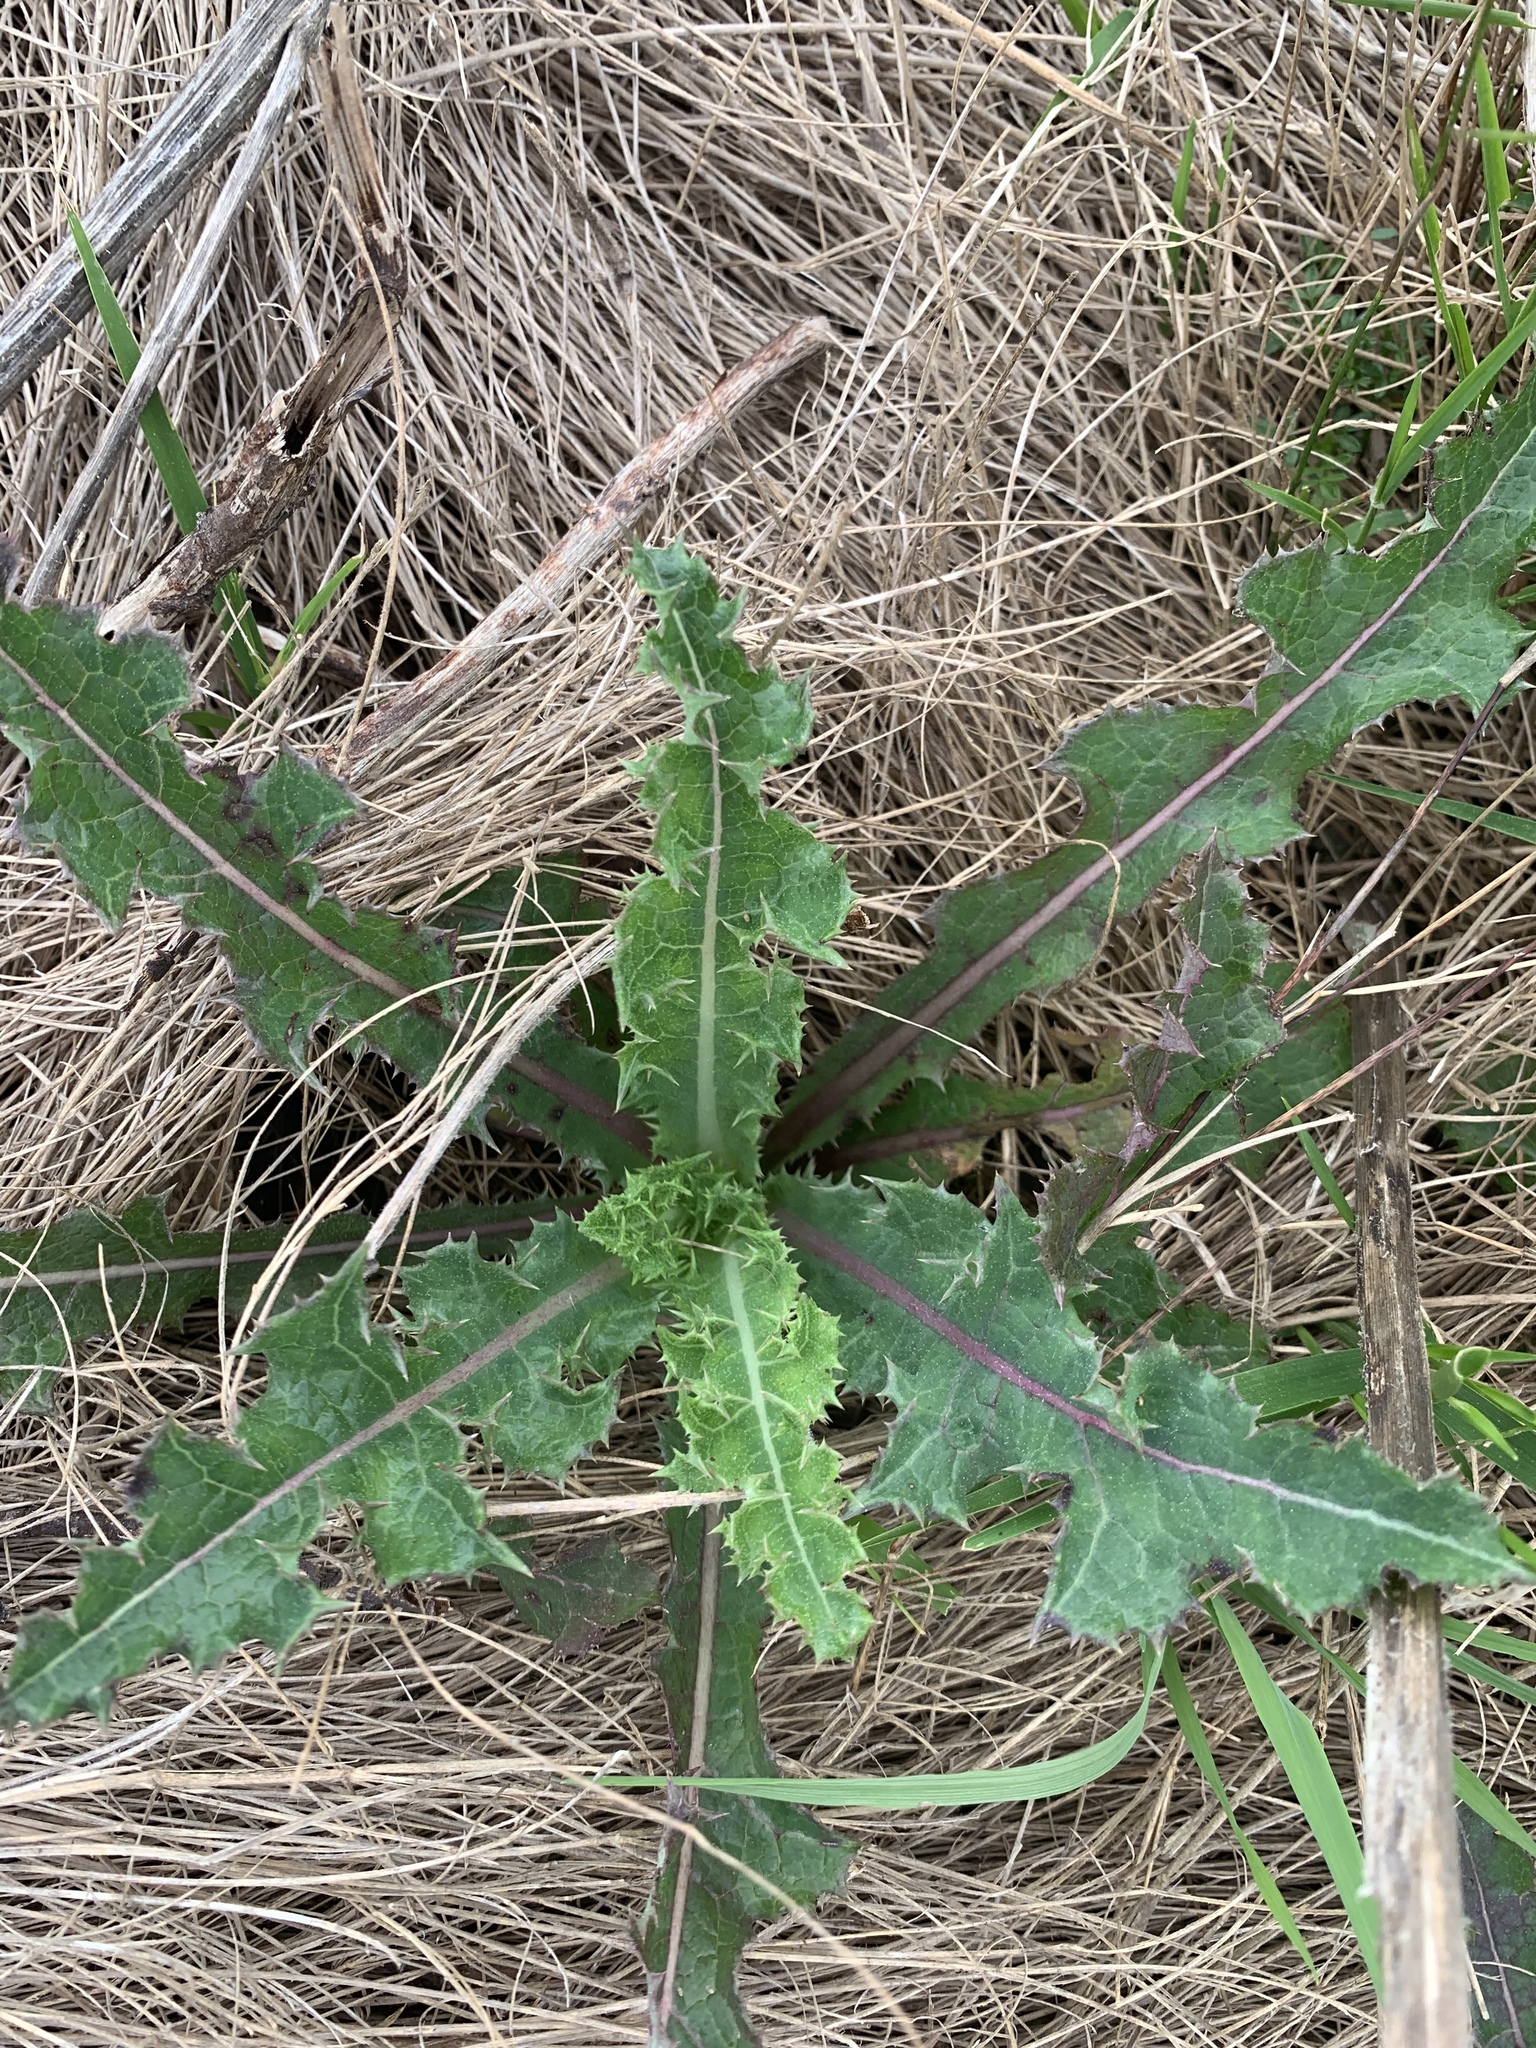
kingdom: Plantae
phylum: Tracheophyta
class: Magnoliopsida
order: Asterales
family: Asteraceae
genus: Sonchus
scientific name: Sonchus asper
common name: Prickly sow-thistle
